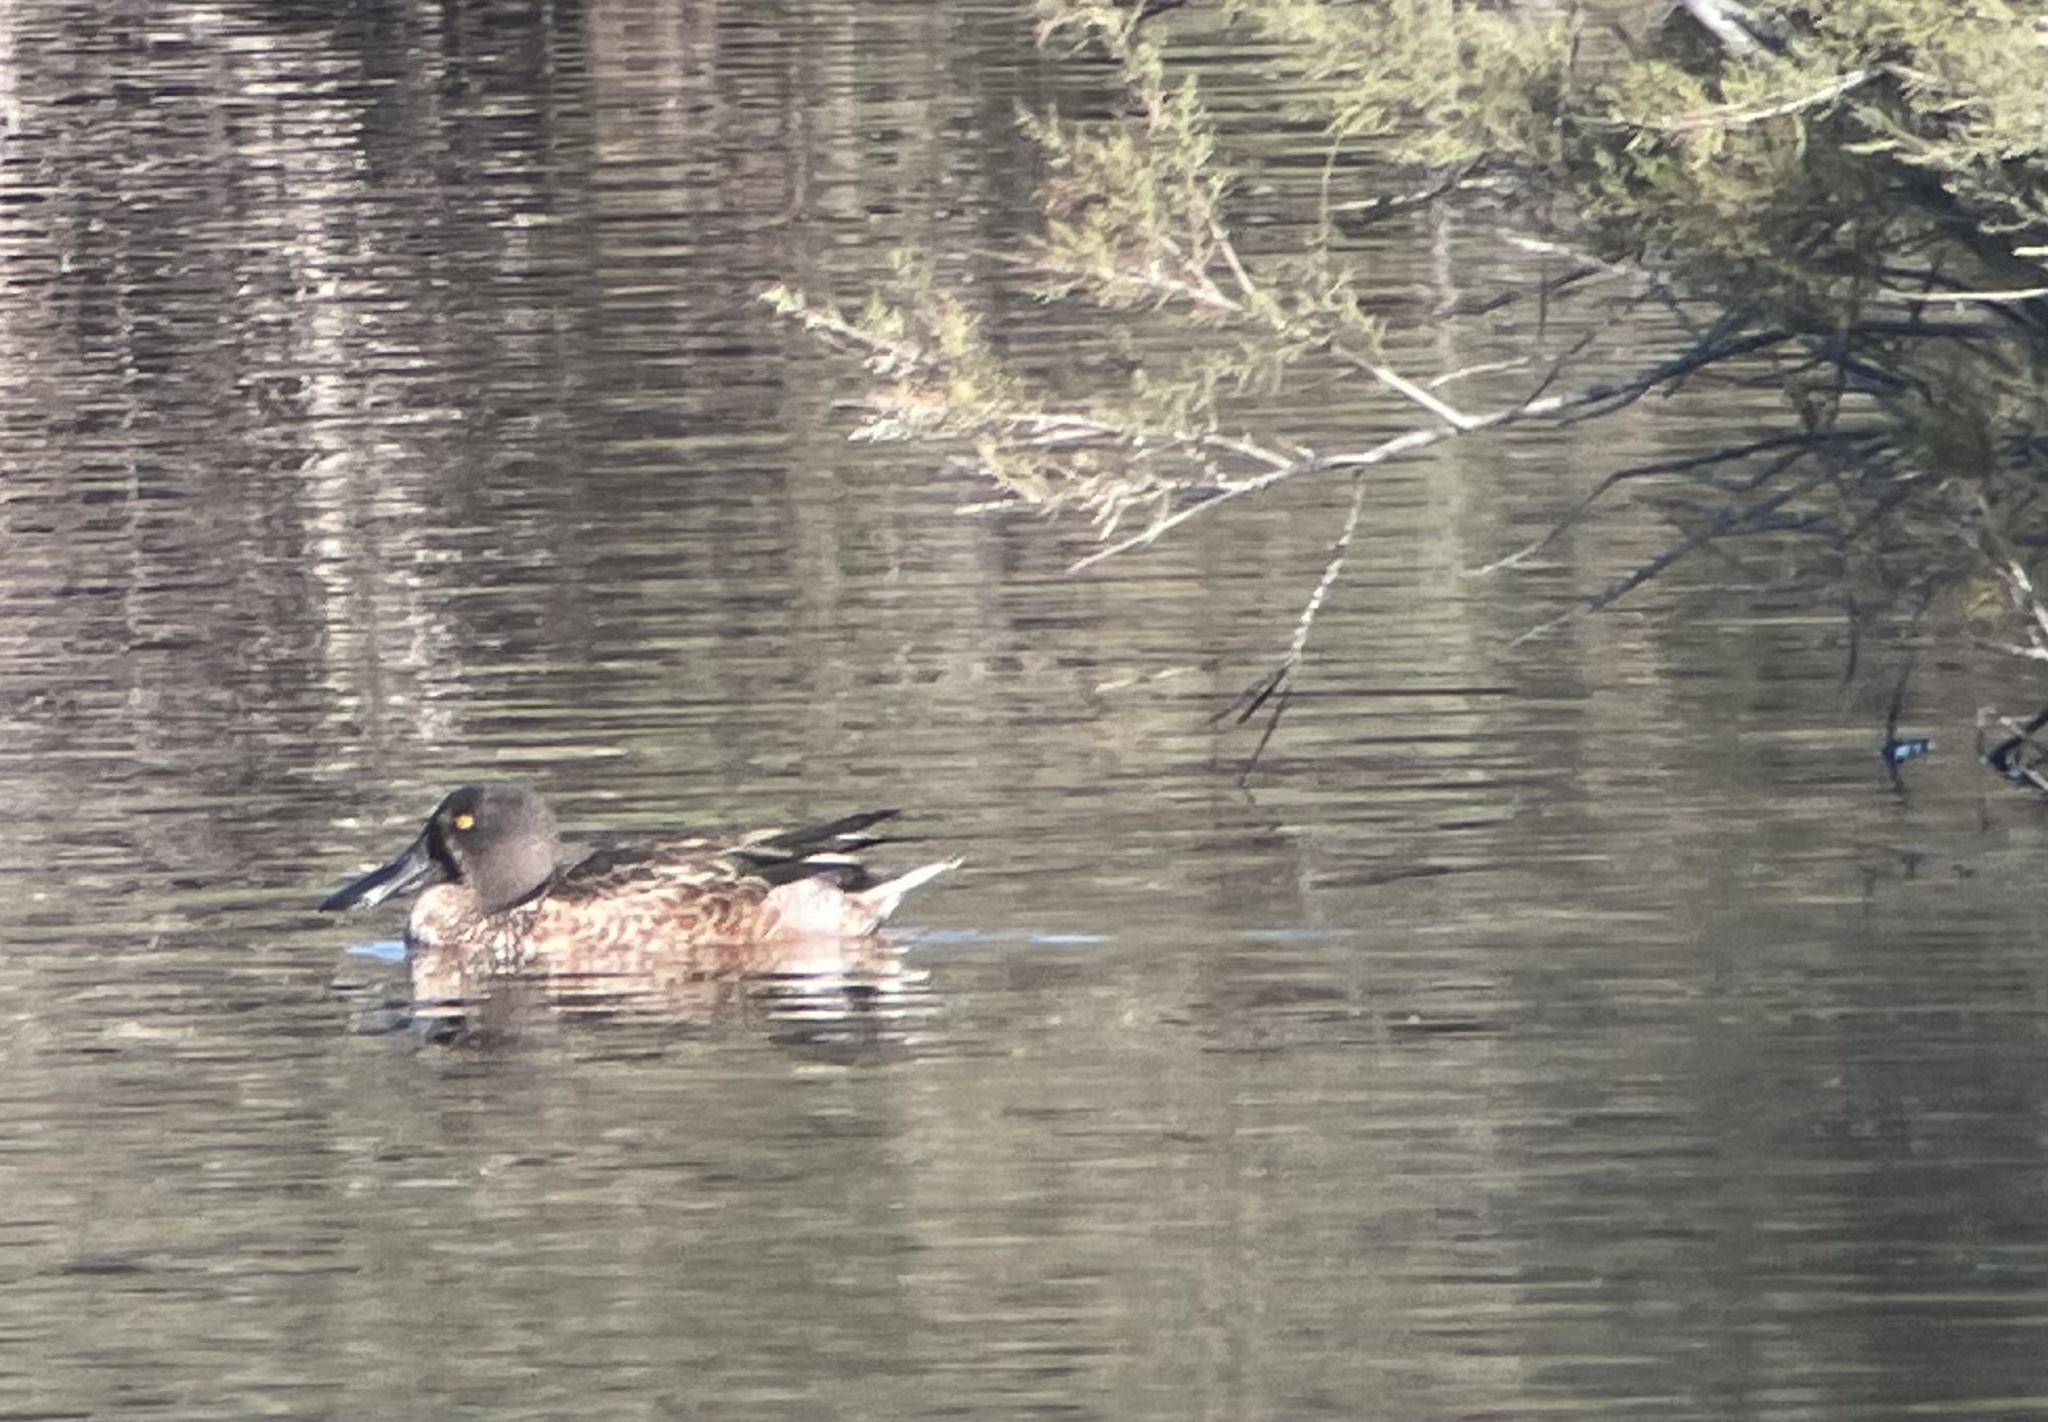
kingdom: Animalia
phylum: Chordata
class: Aves
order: Anseriformes
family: Anatidae
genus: Spatula
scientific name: Spatula clypeata
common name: Northern shoveler
